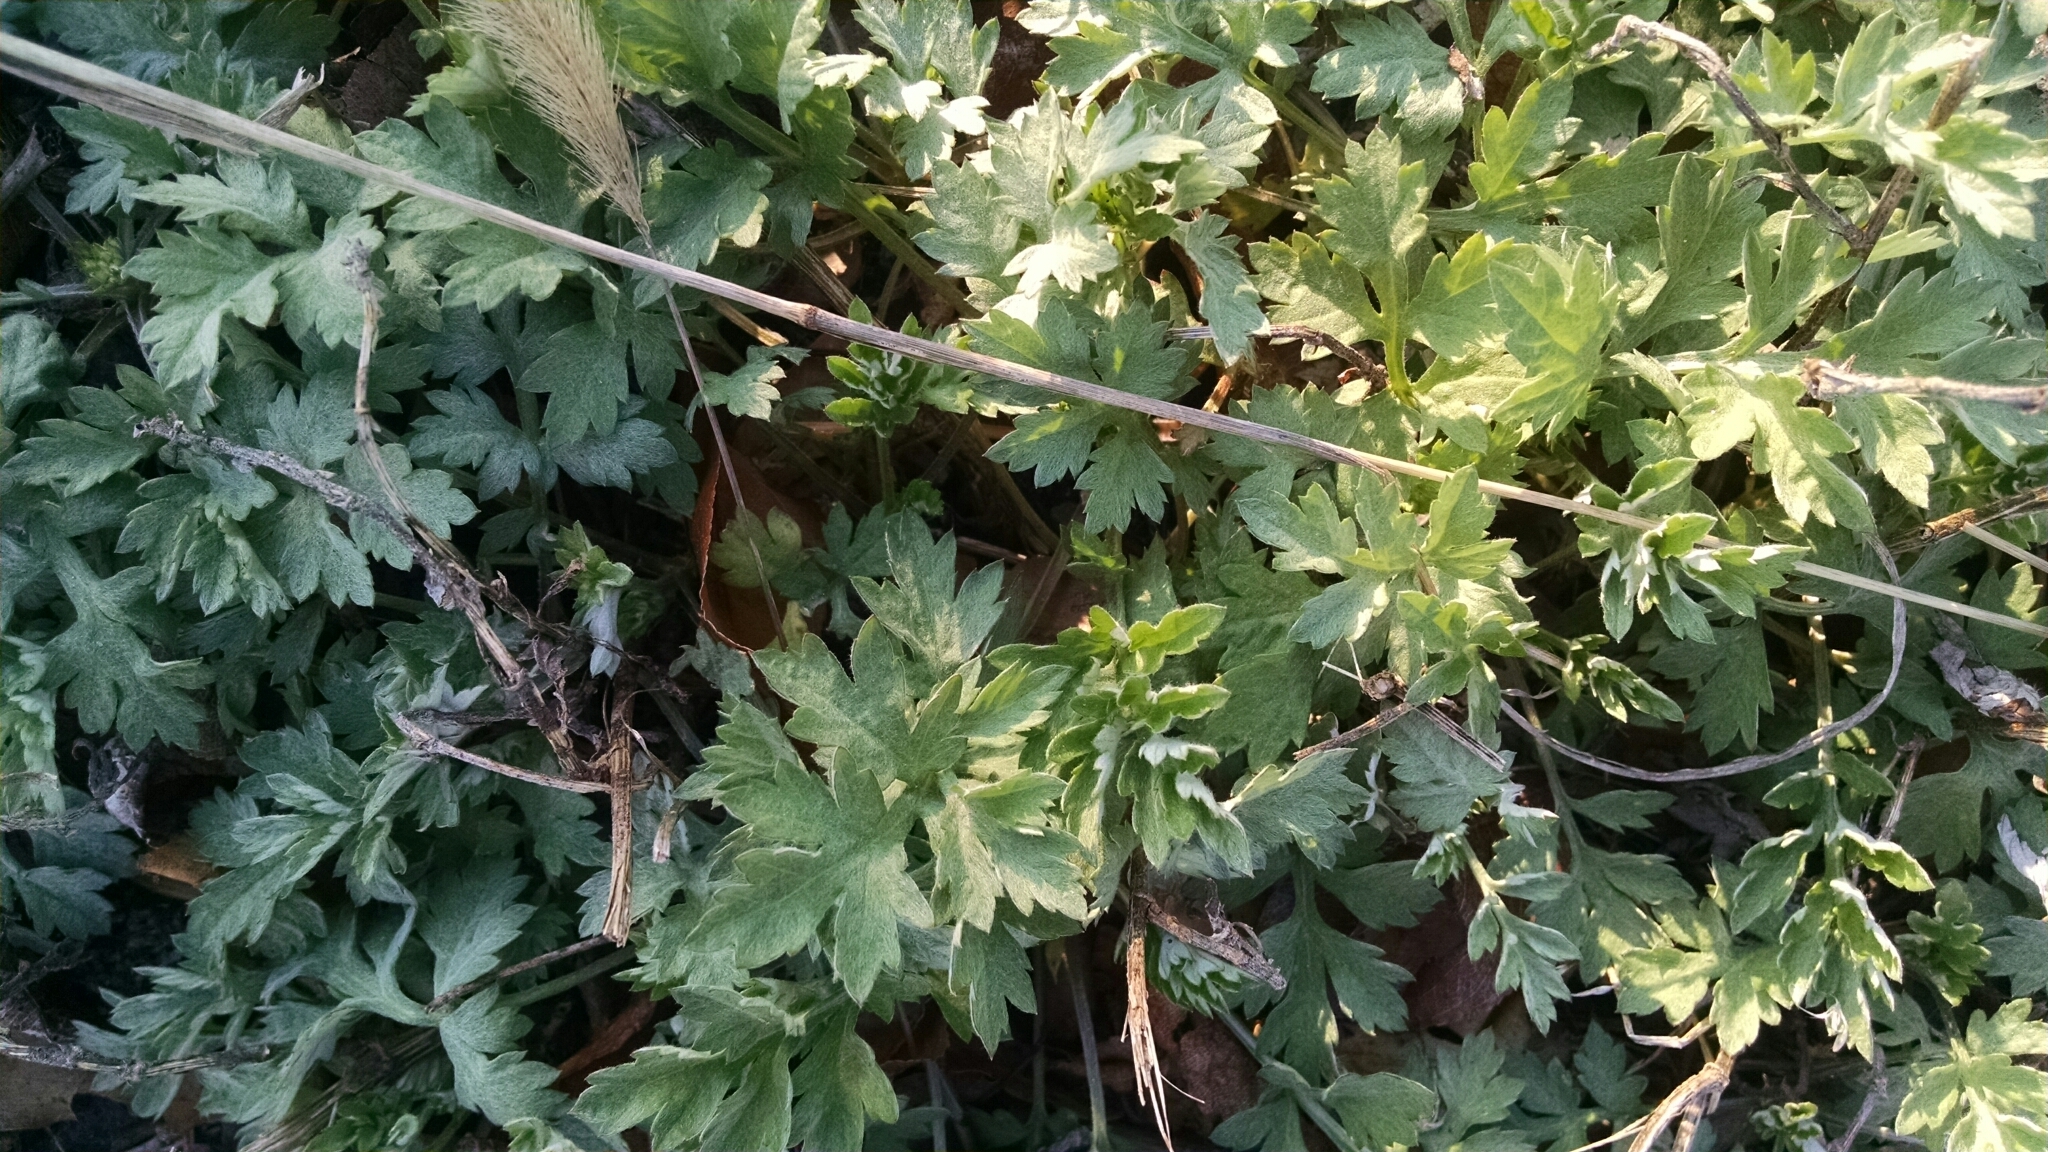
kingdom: Plantae
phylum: Tracheophyta
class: Magnoliopsida
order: Asterales
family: Asteraceae
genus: Artemisia
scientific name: Artemisia vulgaris
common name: Mugwort
